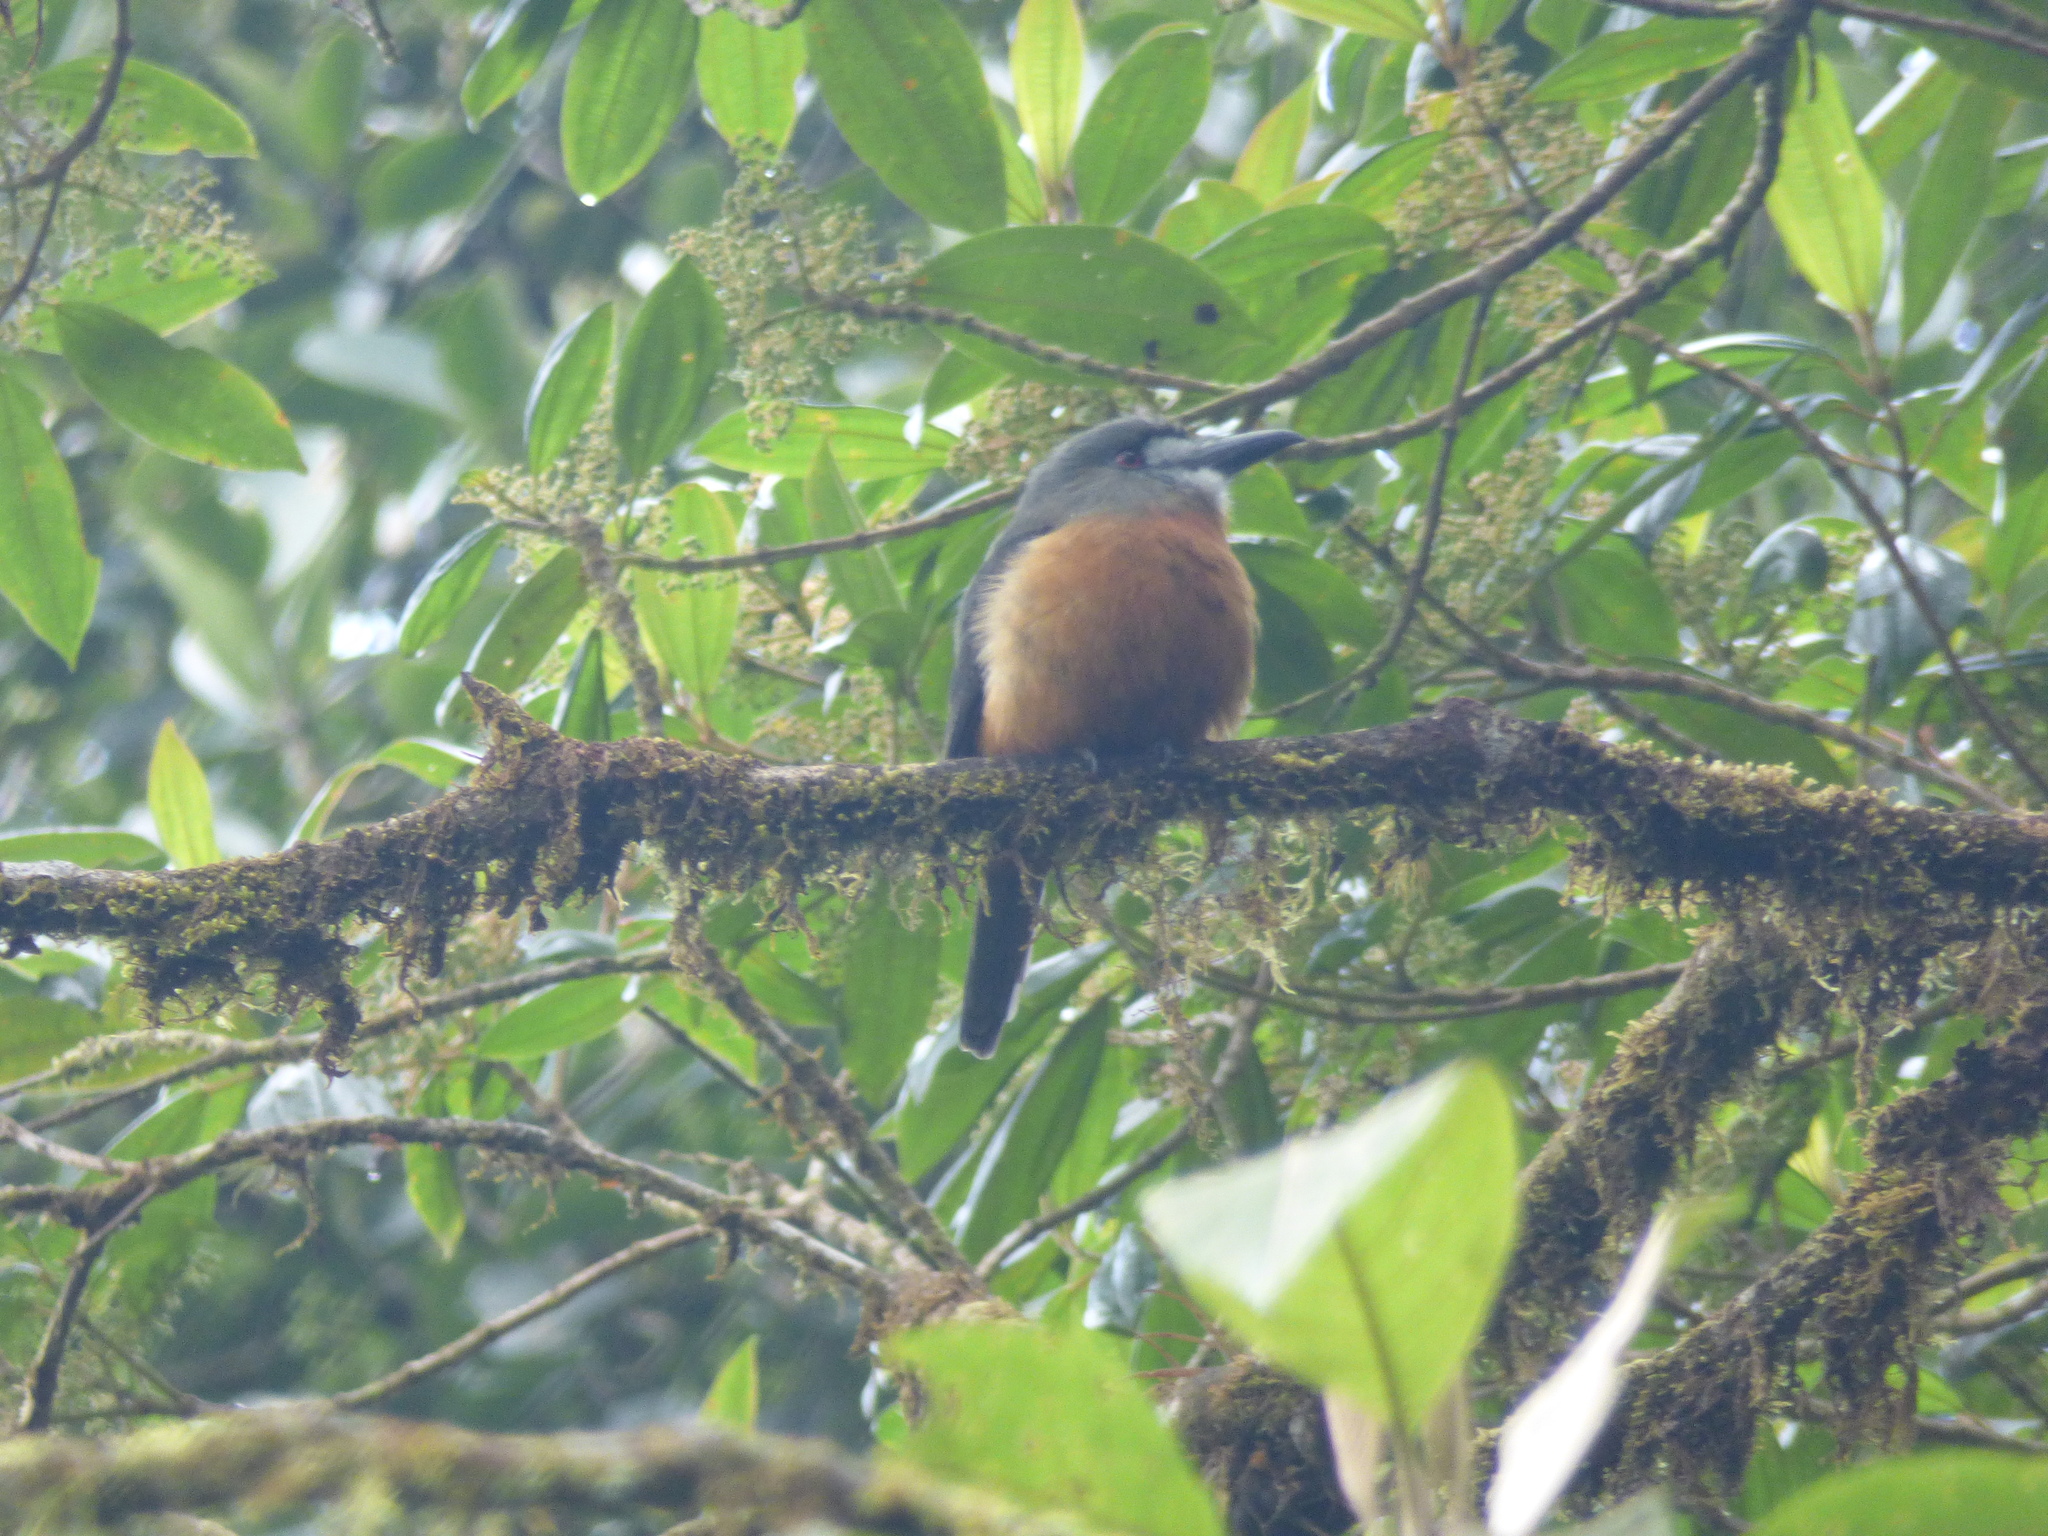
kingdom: Animalia
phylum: Chordata
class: Aves
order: Piciformes
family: Bucconidae
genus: Hapaloptila
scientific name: Hapaloptila castanea
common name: White-faced nunbird
